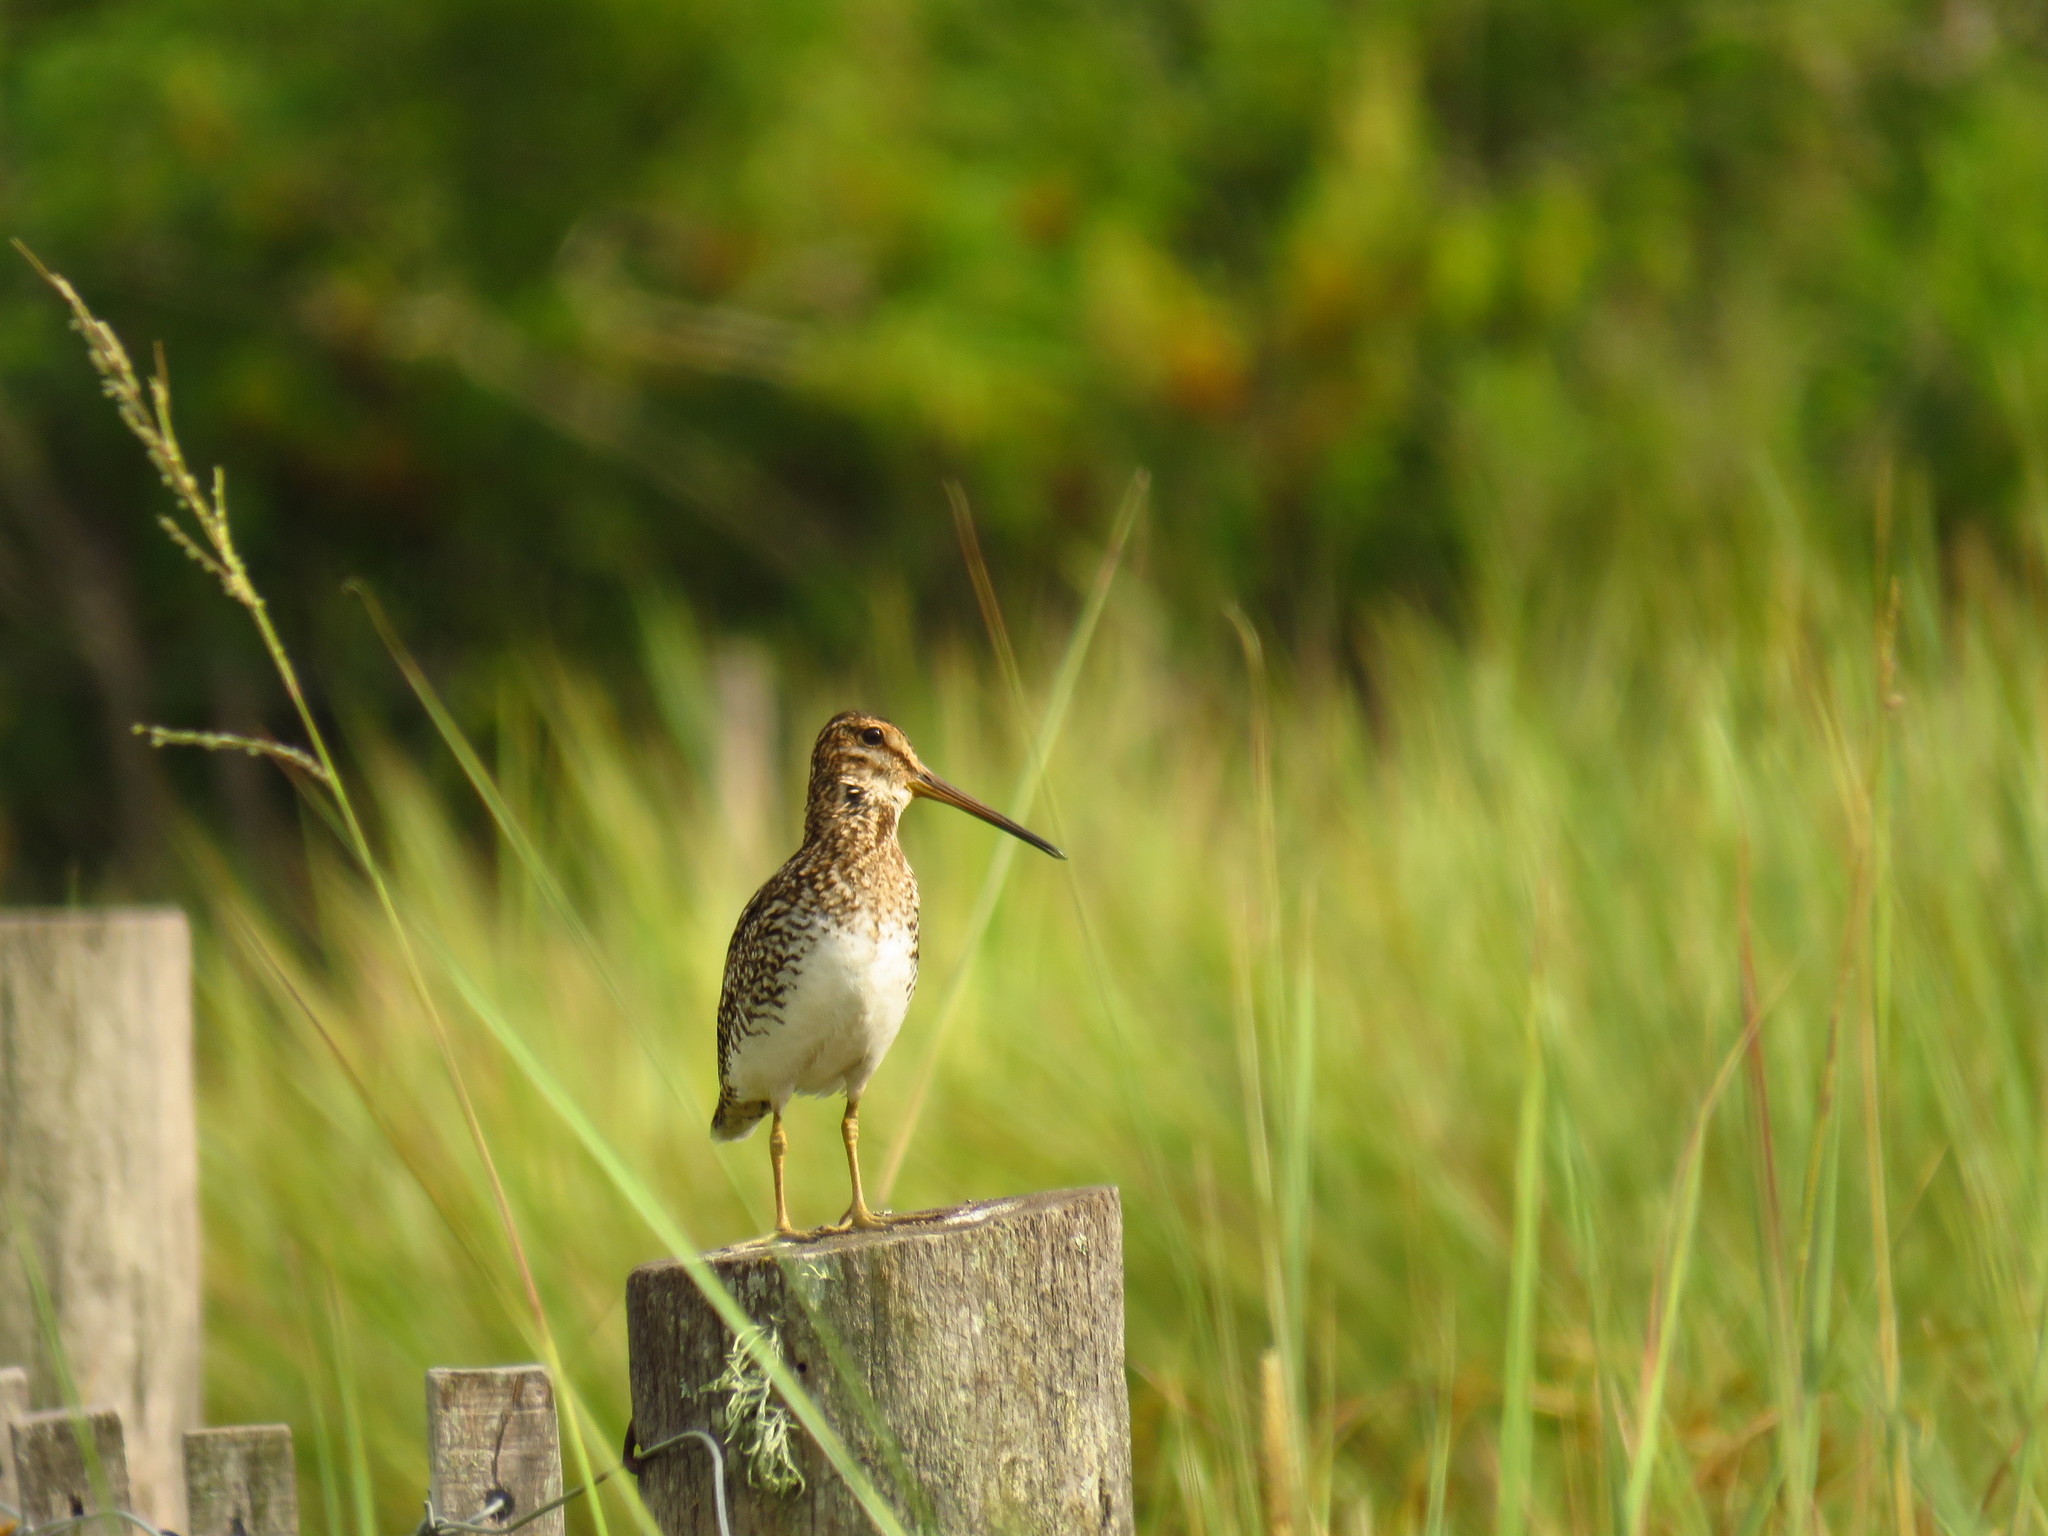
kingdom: Animalia
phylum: Chordata
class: Aves
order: Charadriiformes
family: Scolopacidae
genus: Gallinago
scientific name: Gallinago paraguaiae
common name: South american snipe
